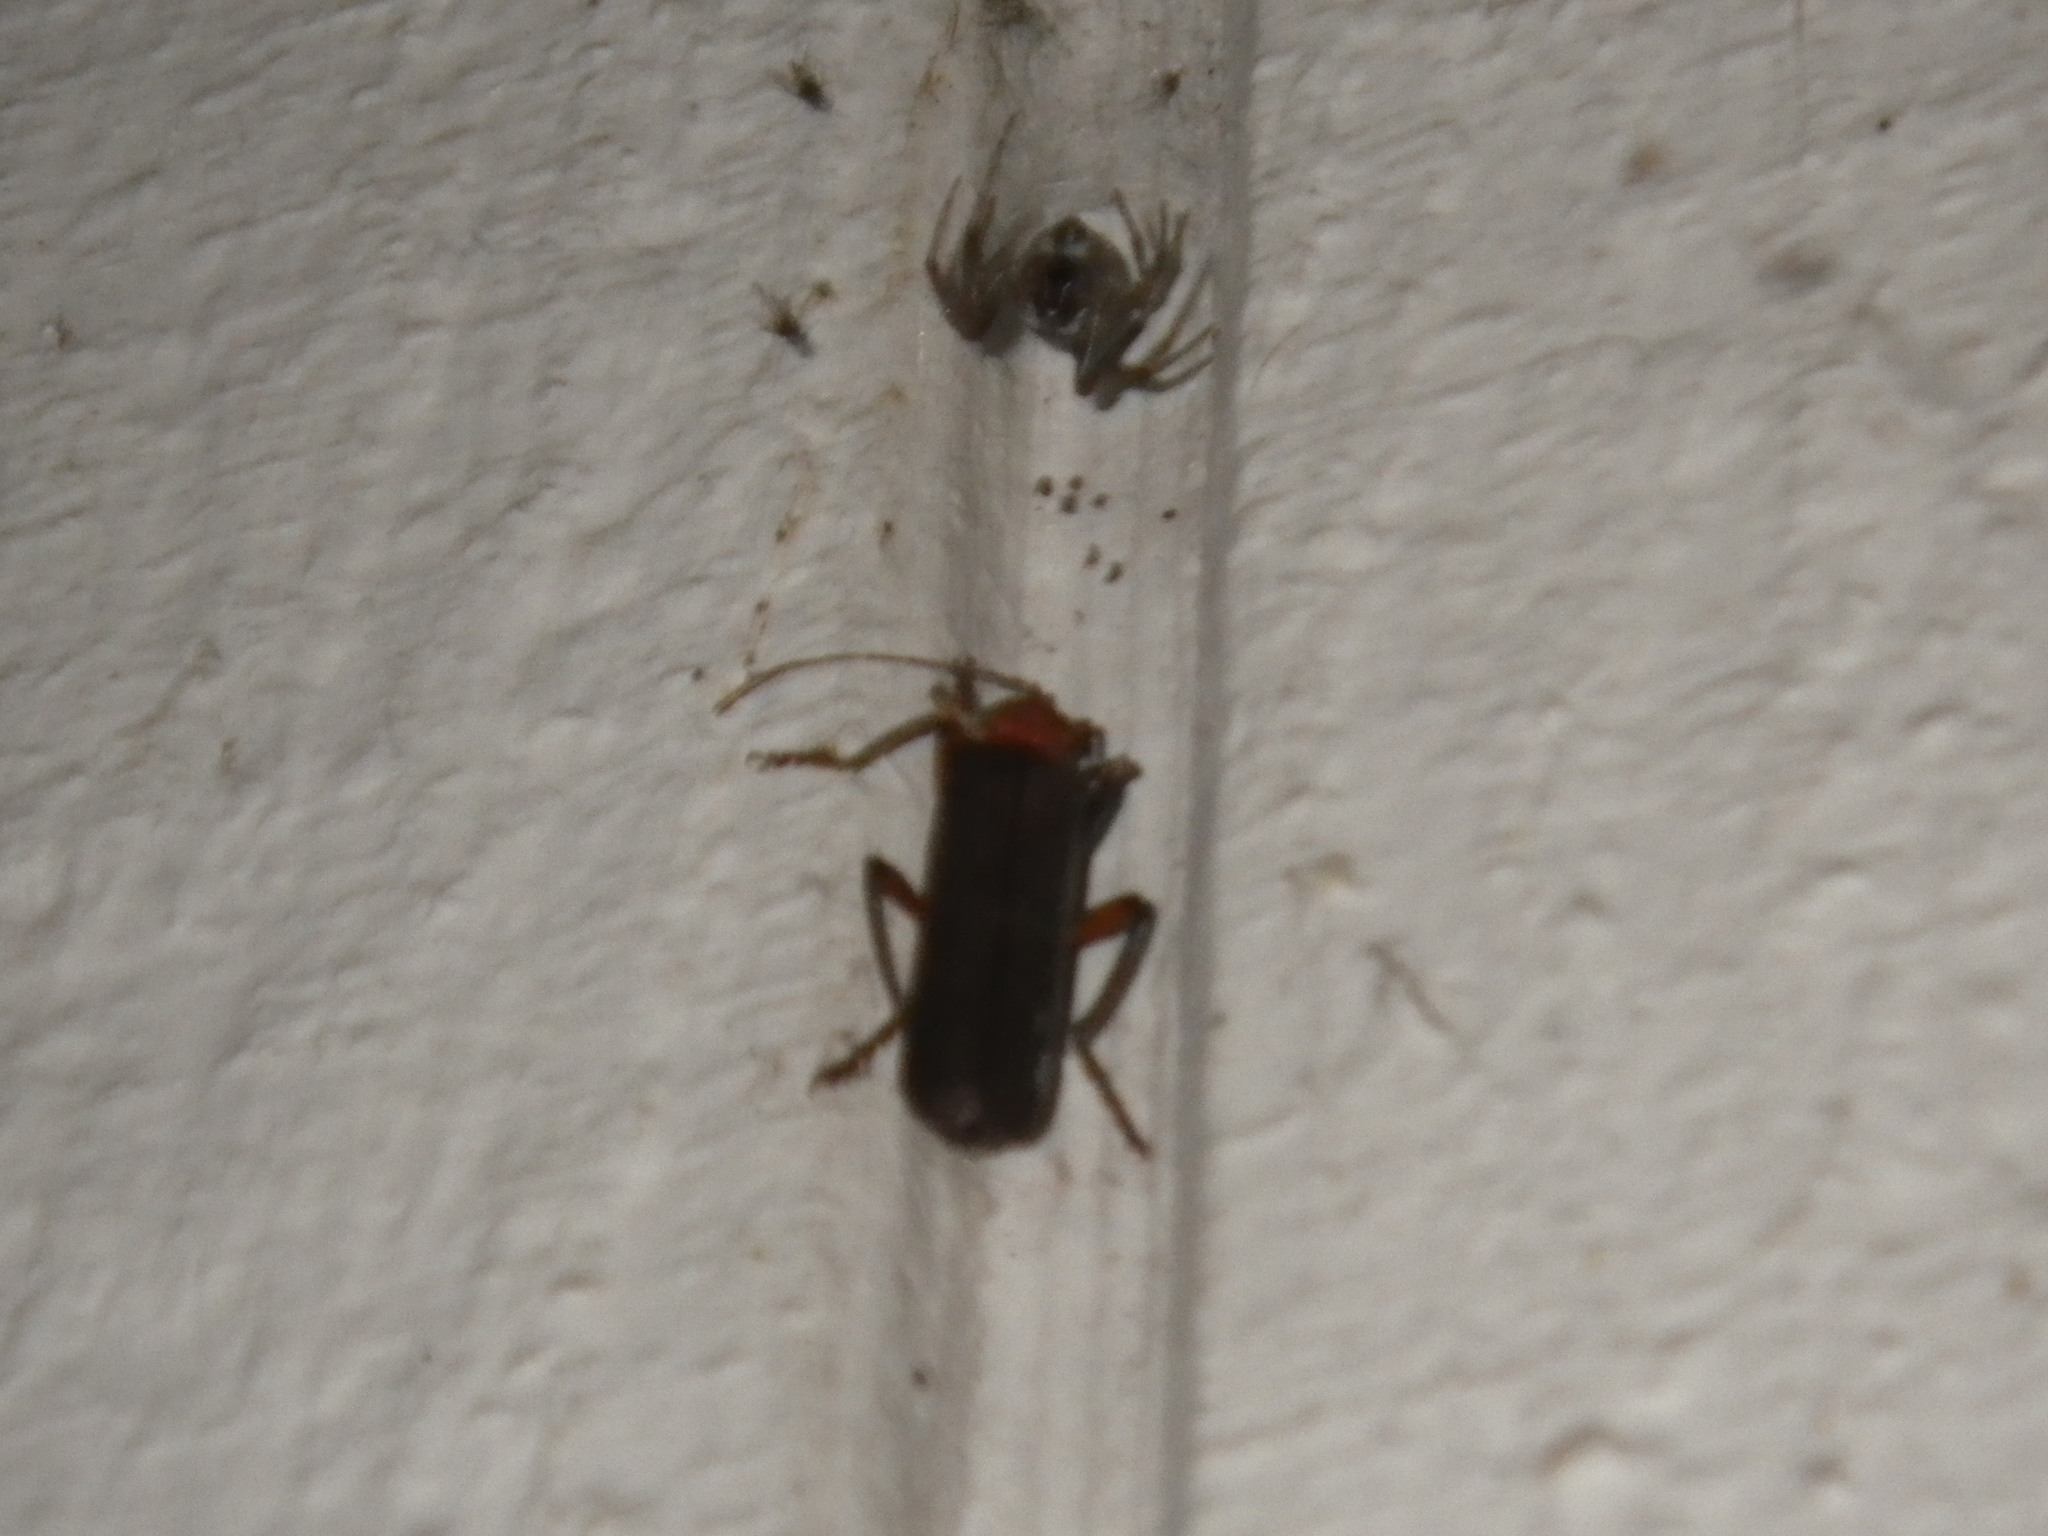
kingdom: Animalia
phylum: Arthropoda
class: Insecta
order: Coleoptera
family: Cantharidae
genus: Pacificanthia
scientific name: Pacificanthia consors
